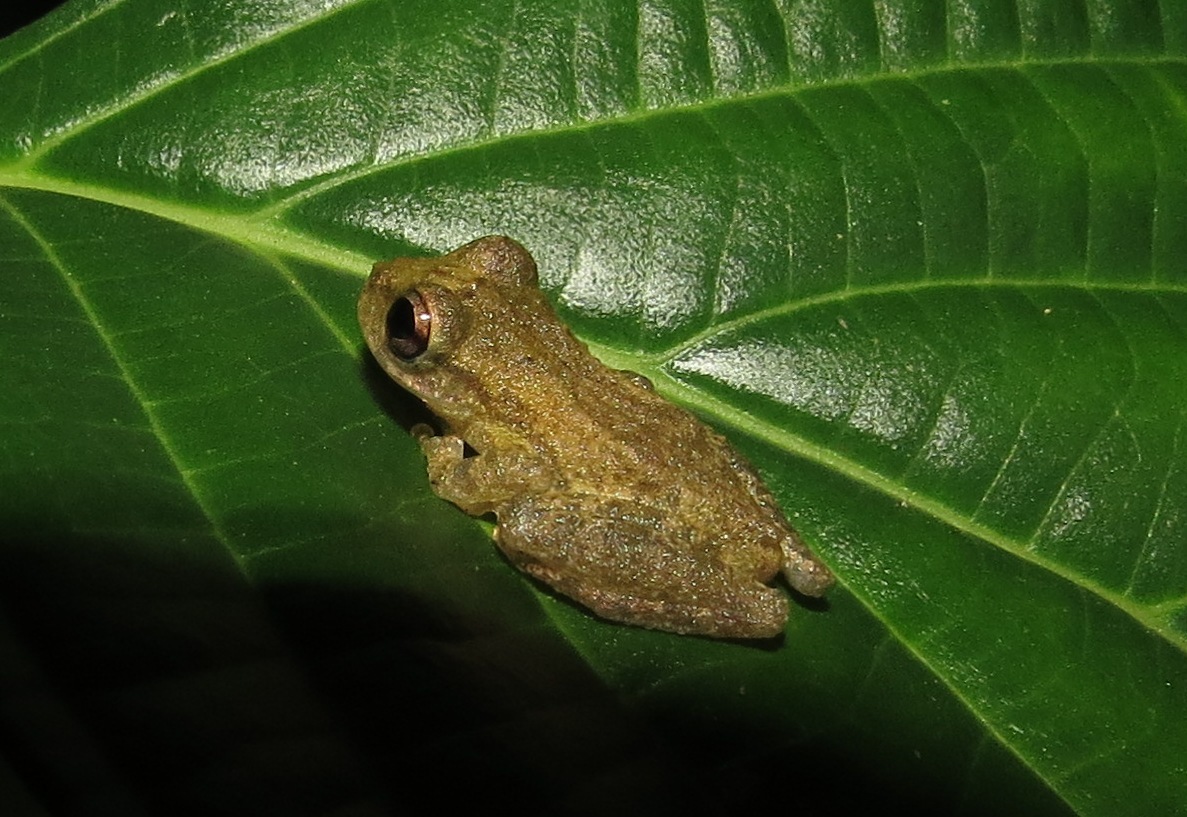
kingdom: Animalia
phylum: Chordata
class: Amphibia
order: Anura
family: Hemiphractidae
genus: Flectonotus
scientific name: Flectonotus fitzgeraldi
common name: Marsupial frog
